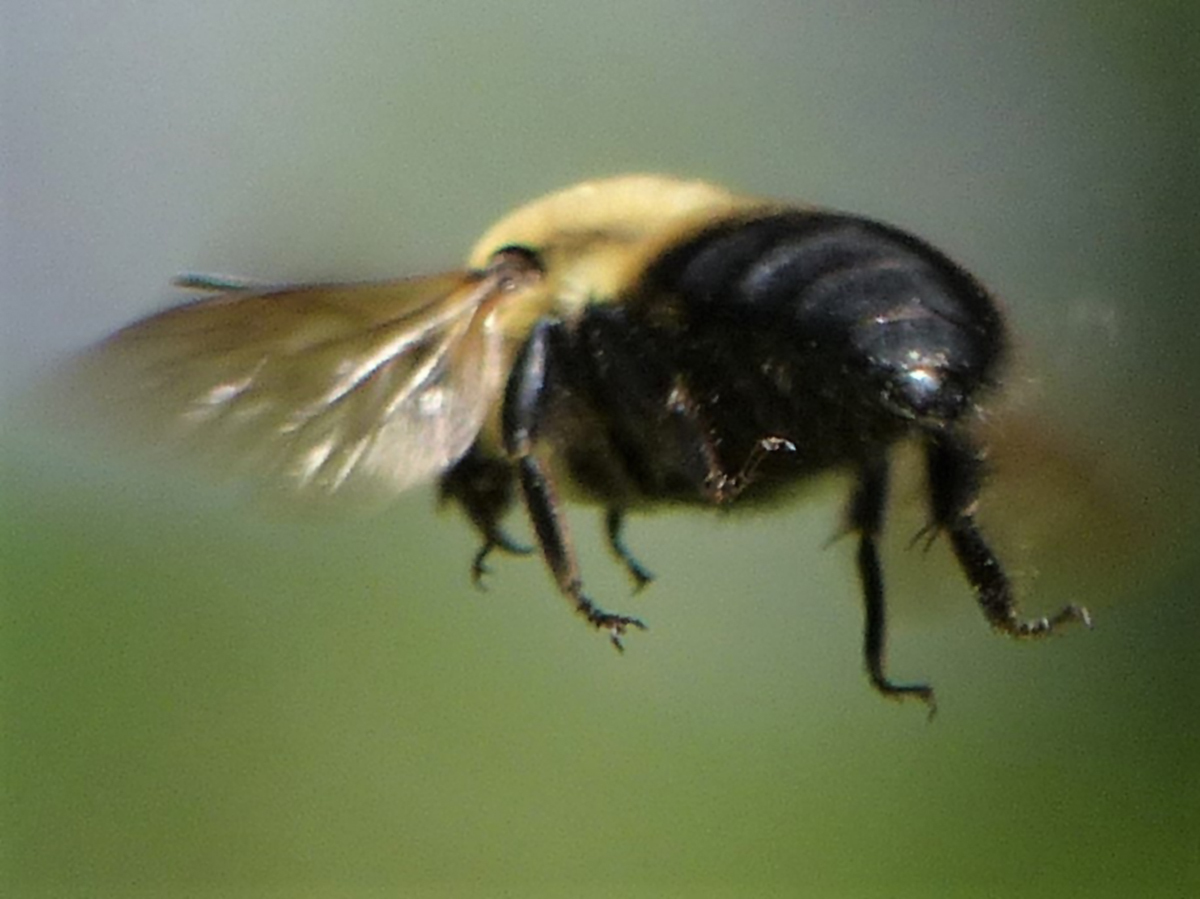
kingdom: Animalia
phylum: Arthropoda
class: Insecta
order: Hymenoptera
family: Apidae
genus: Bombus
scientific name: Bombus griseocollis
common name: Brown-belted bumble bee
